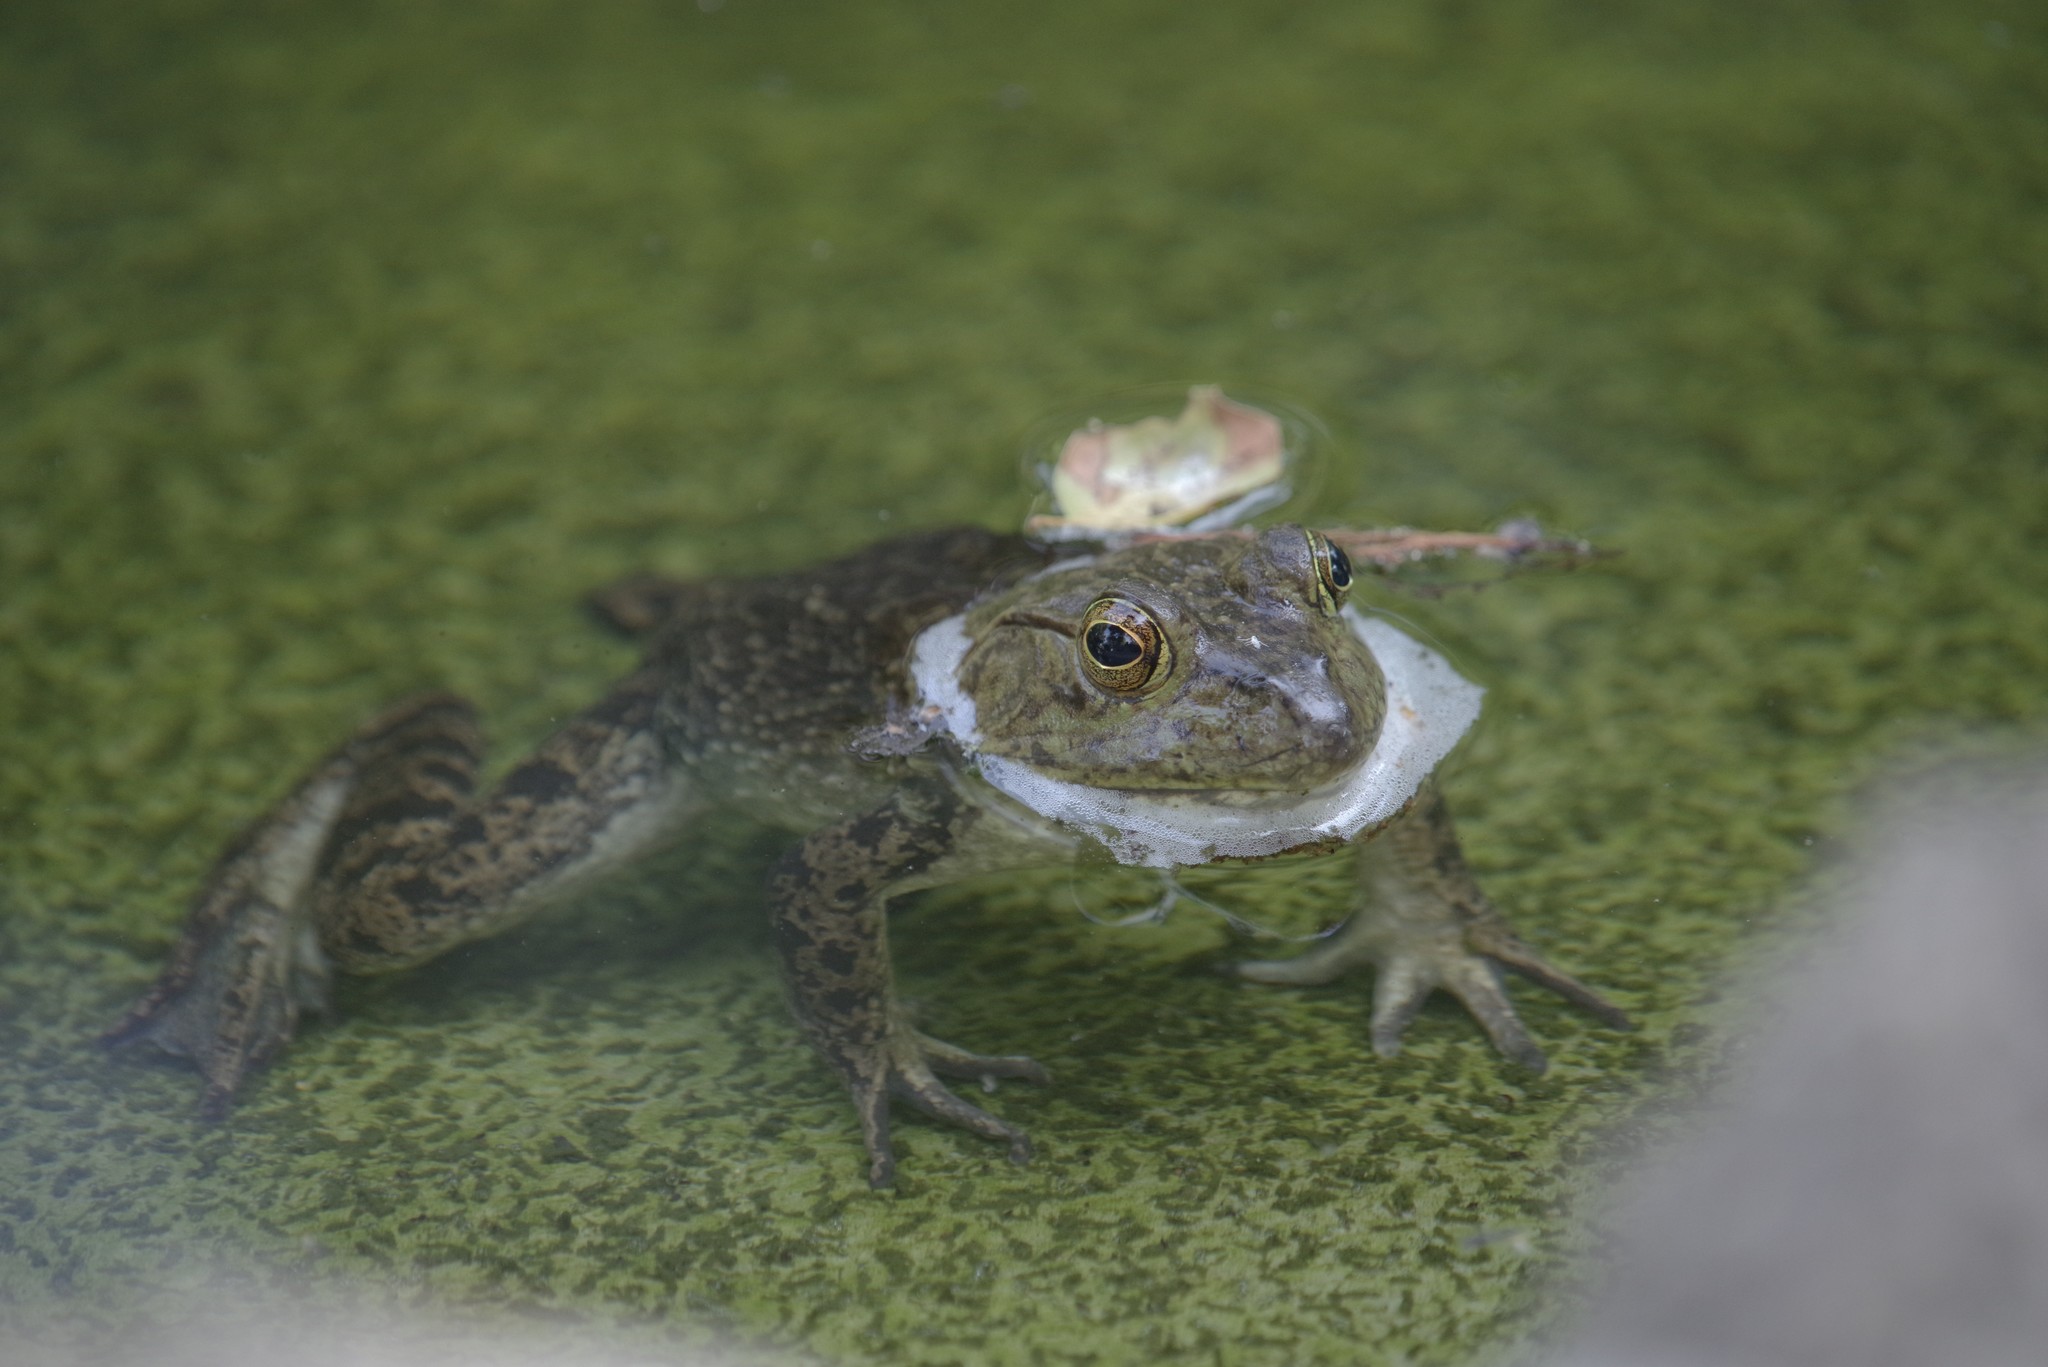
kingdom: Animalia
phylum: Chordata
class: Amphibia
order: Anura
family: Ranidae
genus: Lithobates
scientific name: Lithobates catesbeianus
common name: American bullfrog
